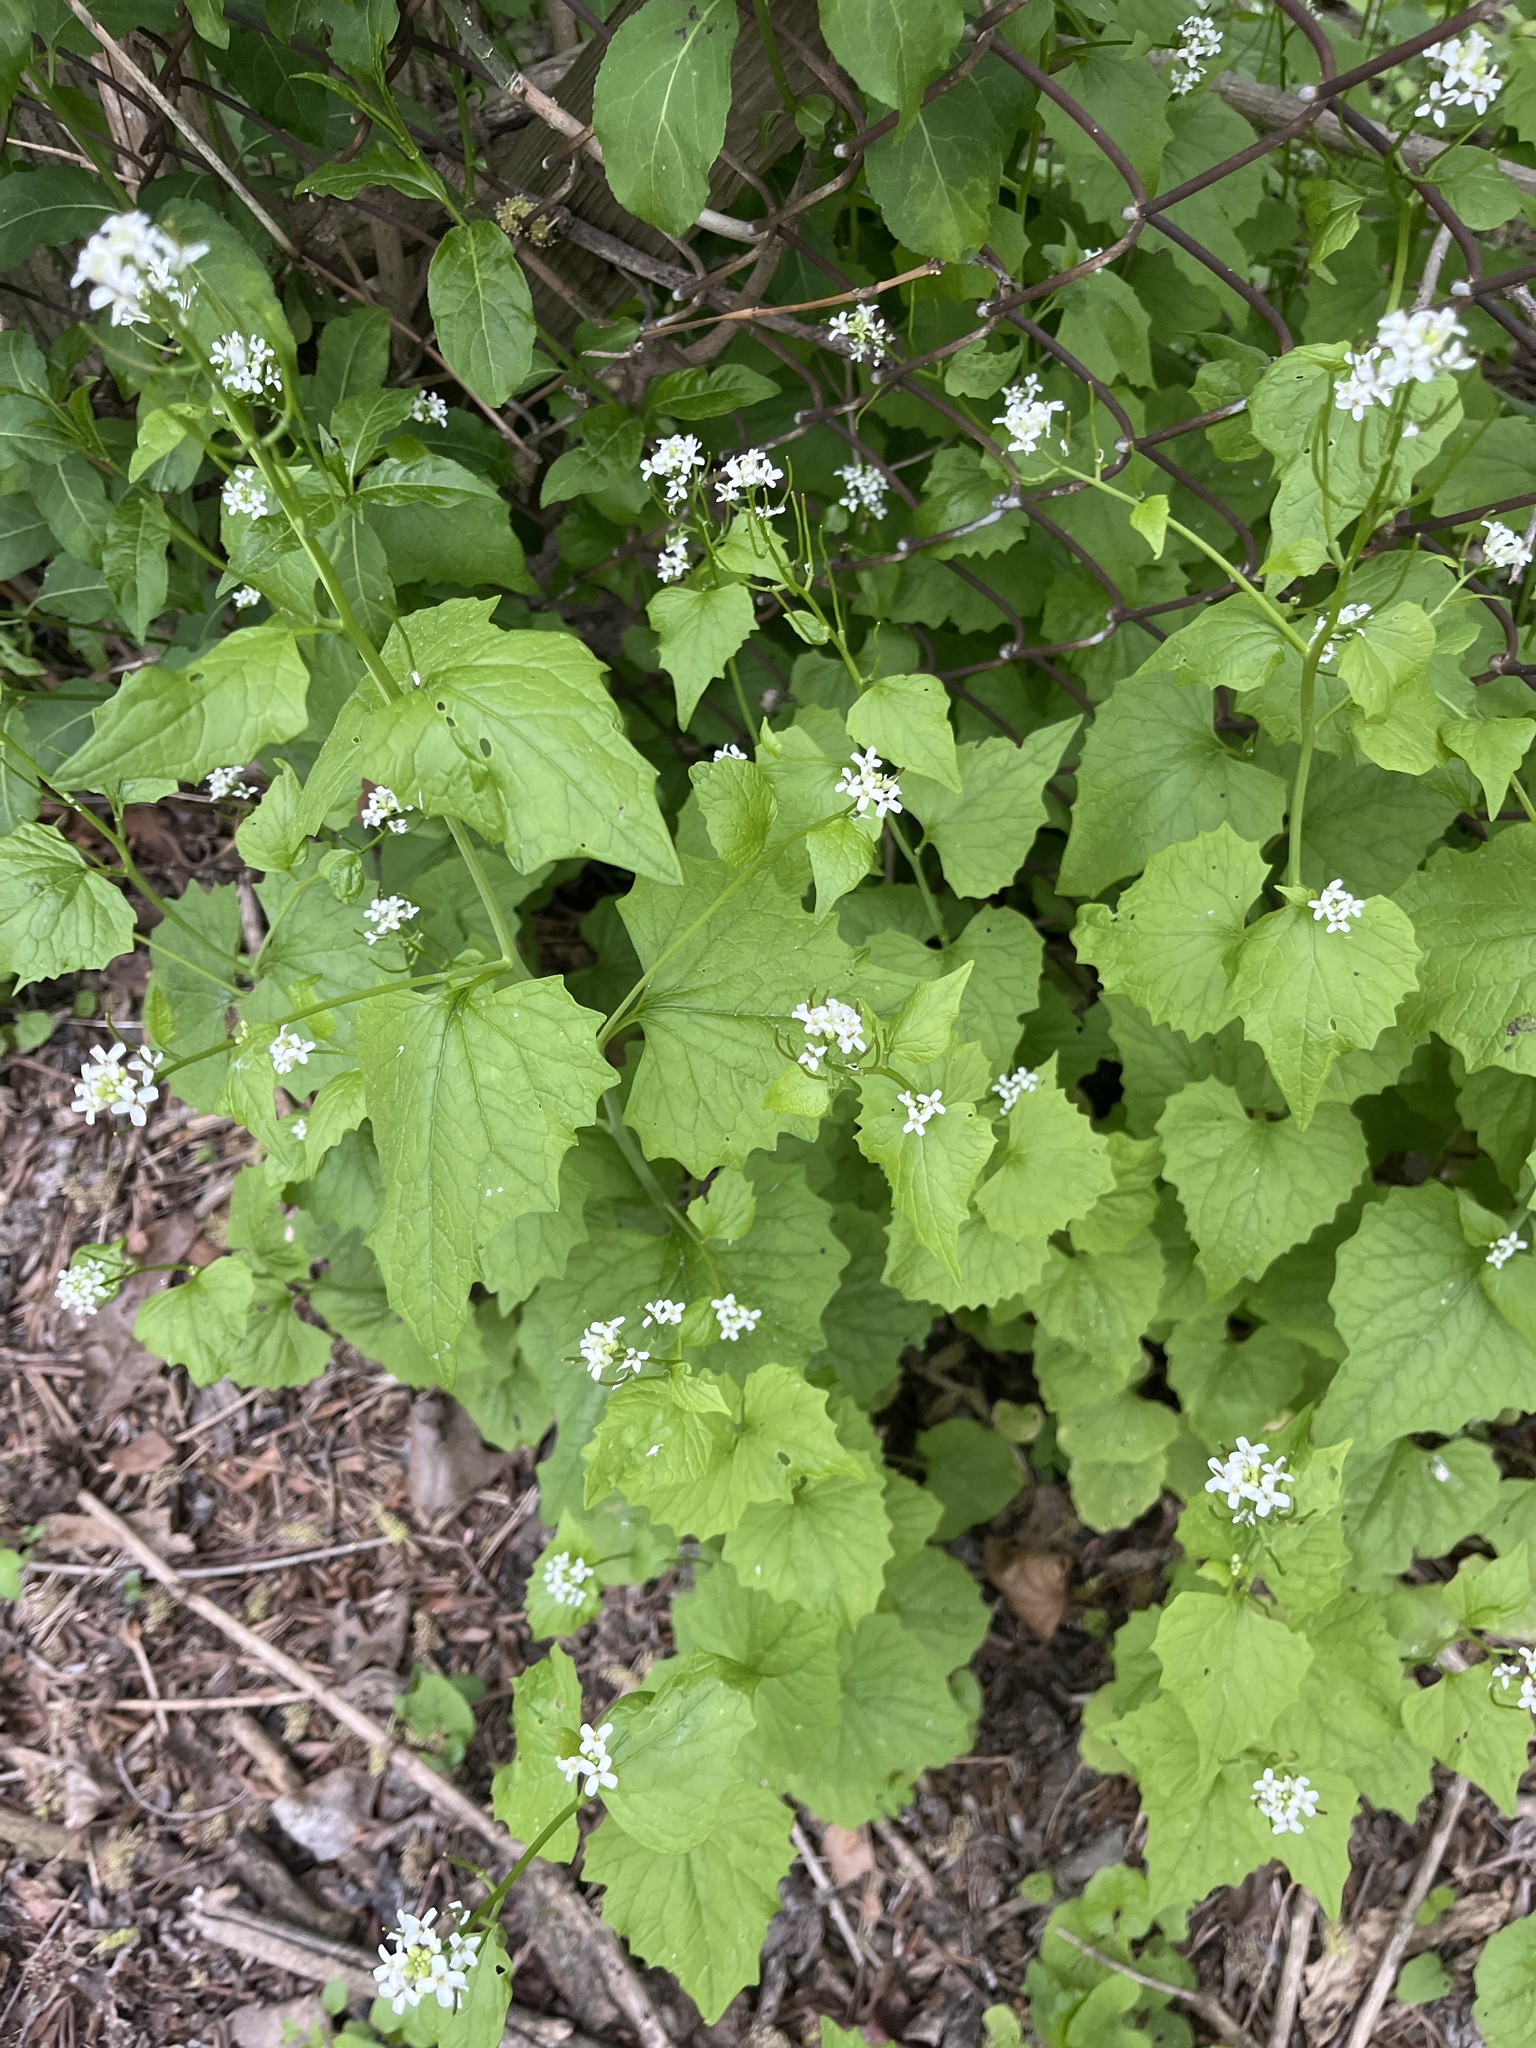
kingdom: Plantae
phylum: Tracheophyta
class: Magnoliopsida
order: Brassicales
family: Brassicaceae
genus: Alliaria
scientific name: Alliaria petiolata
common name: Garlic mustard
